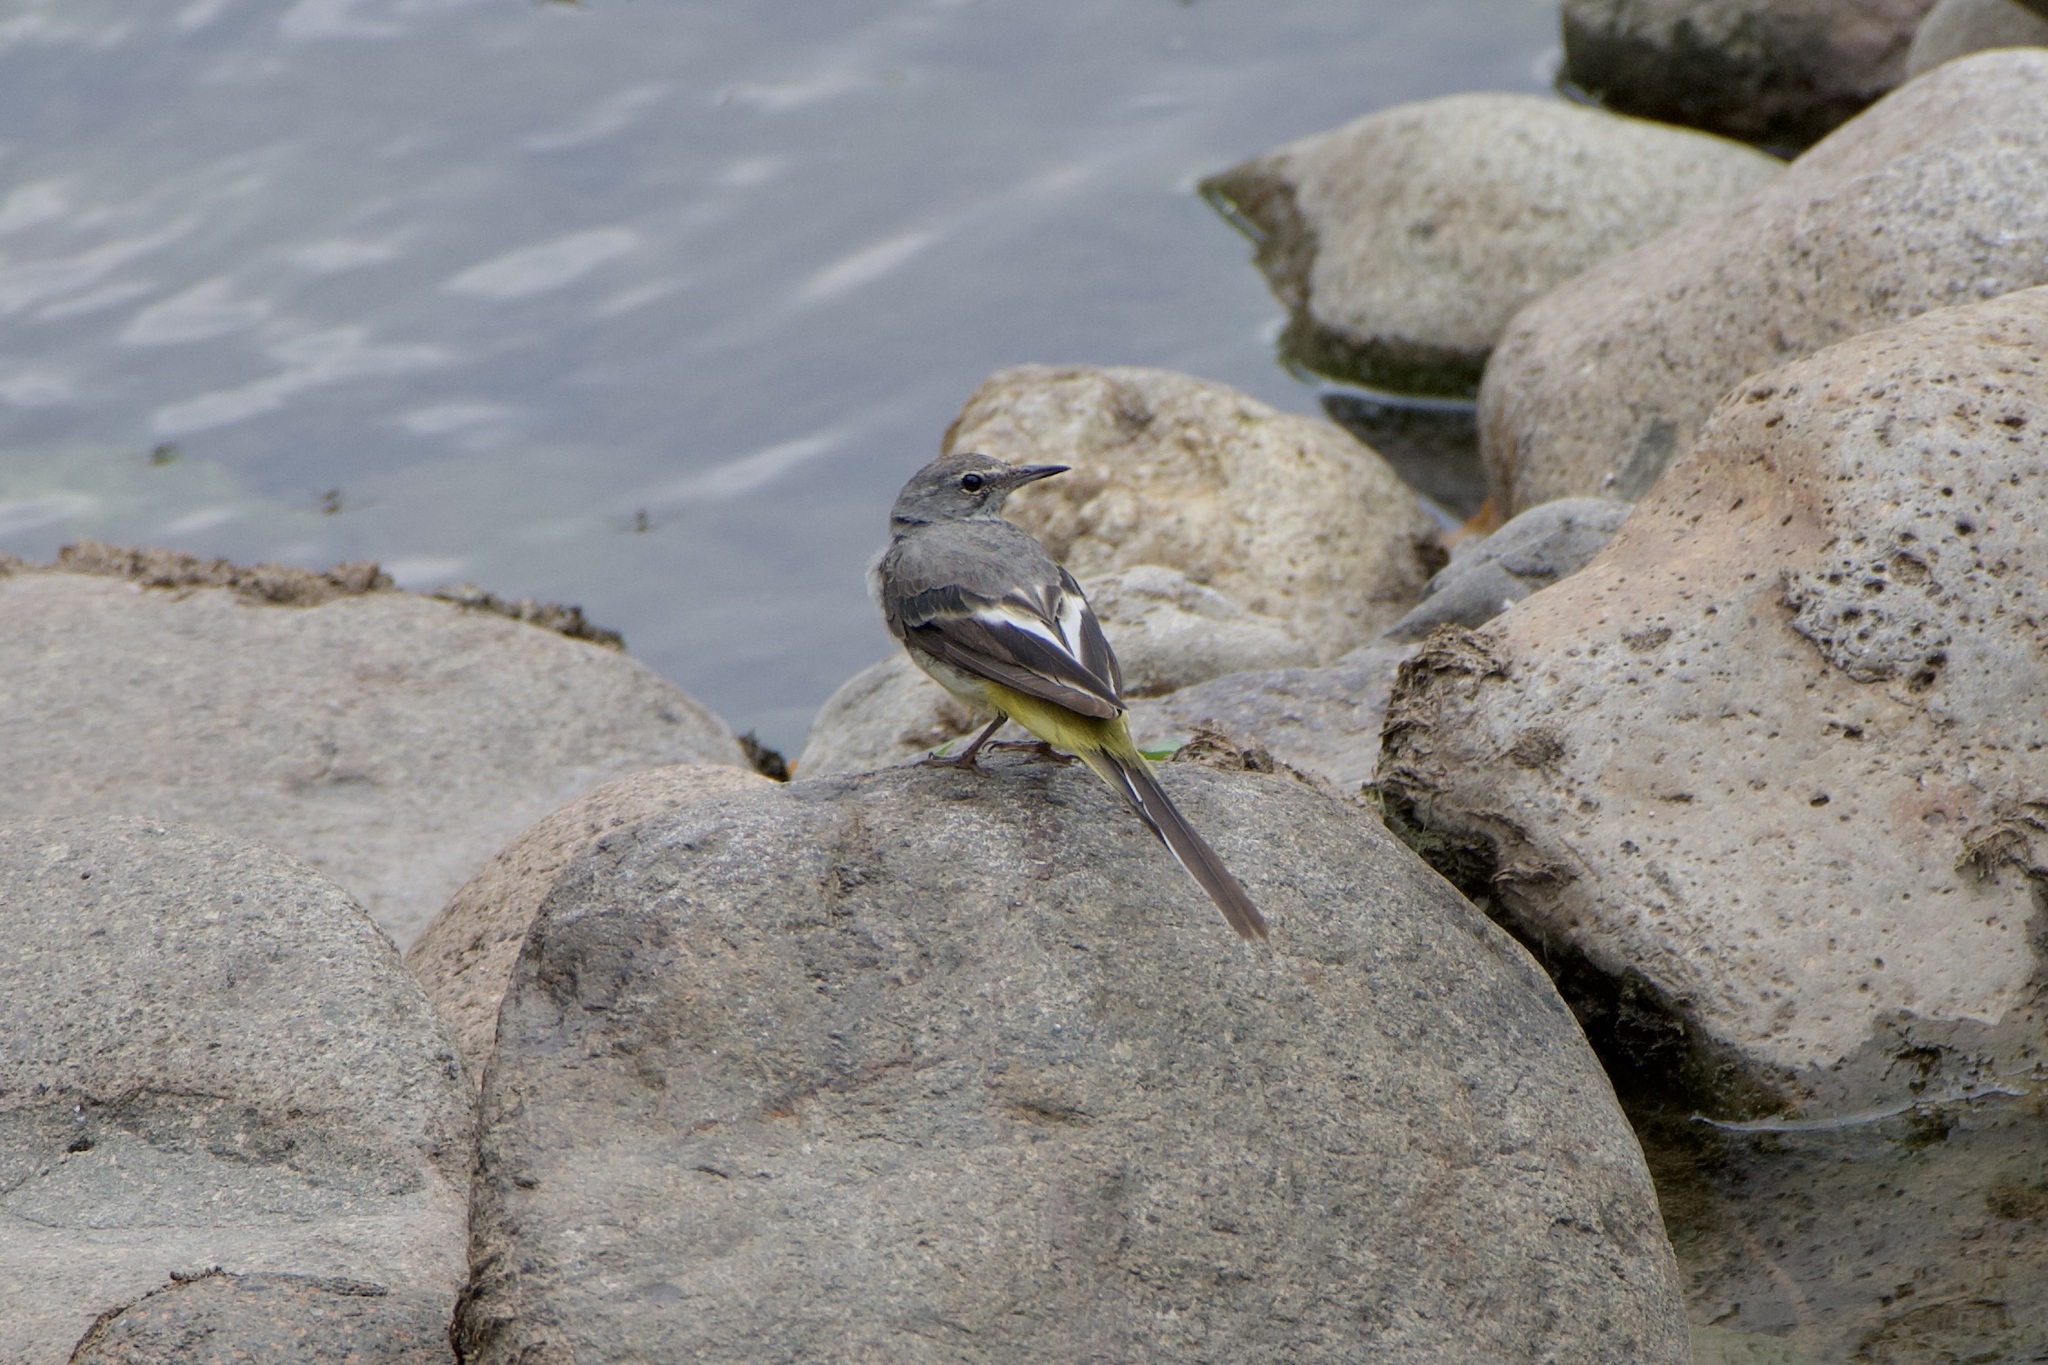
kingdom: Animalia
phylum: Chordata
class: Aves
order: Passeriformes
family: Motacillidae
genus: Motacilla
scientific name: Motacilla cinerea
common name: Grey wagtail
